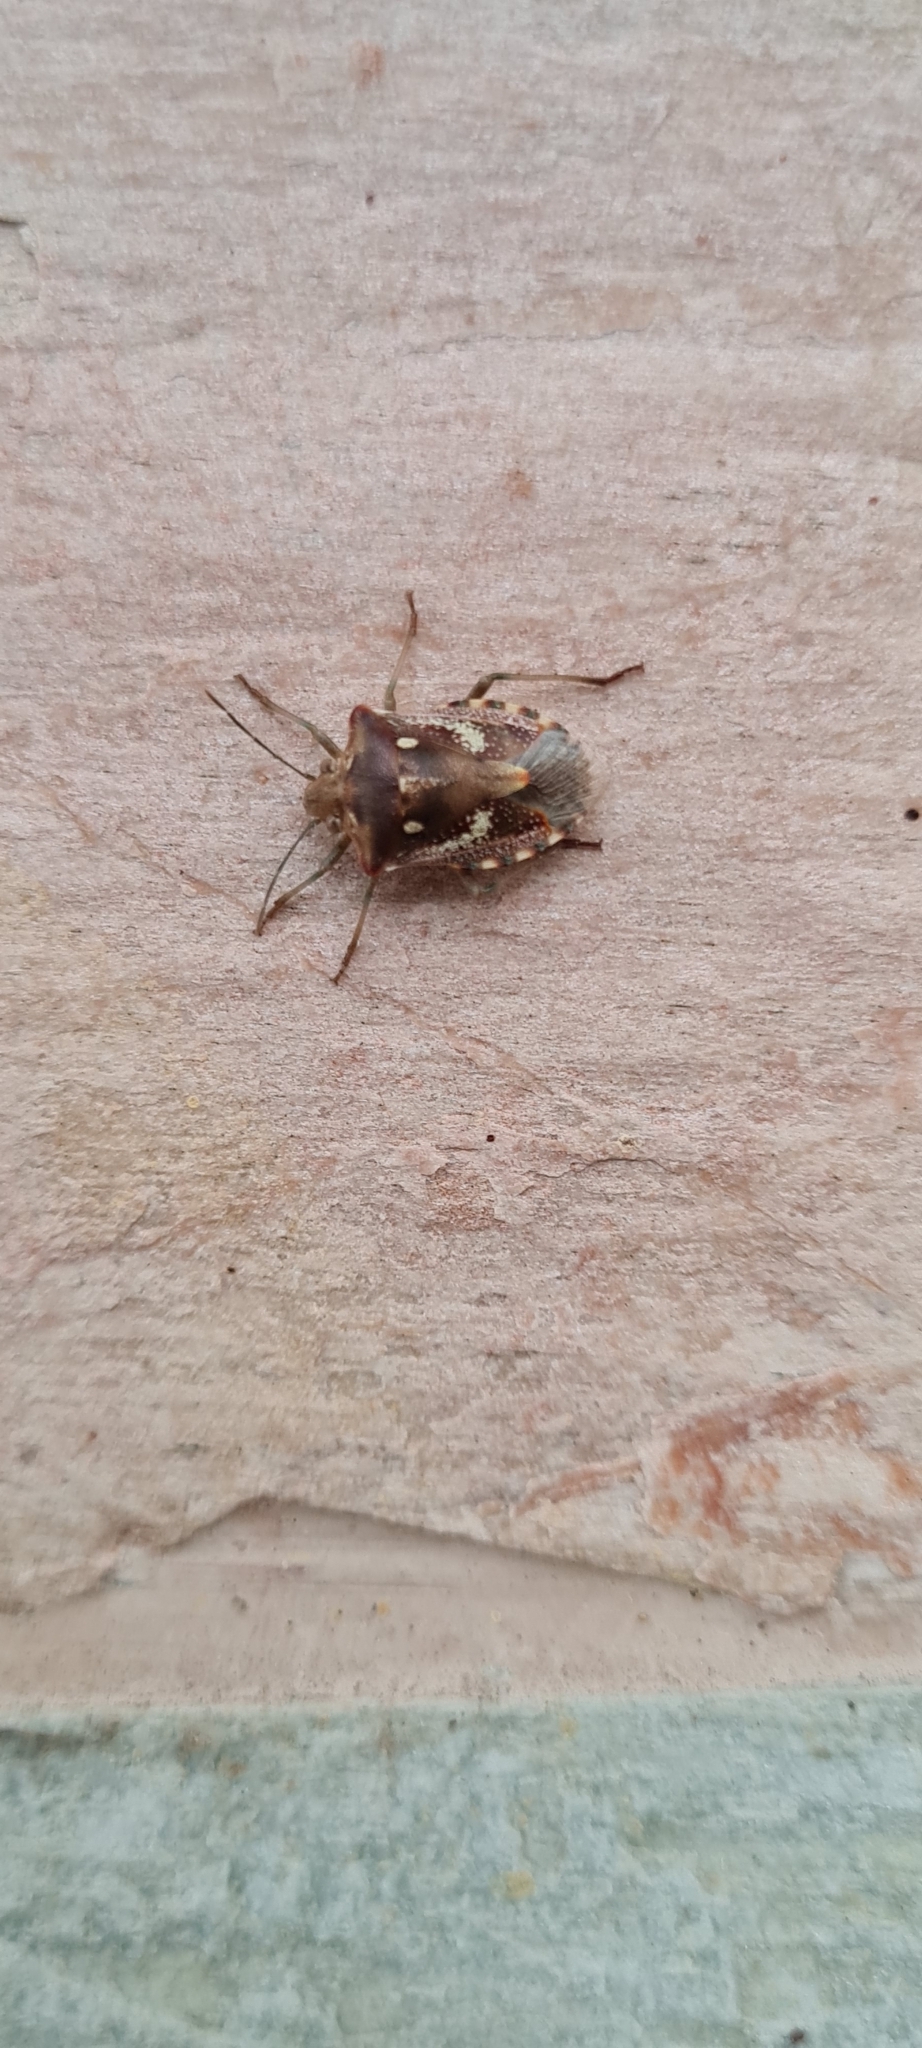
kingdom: Animalia
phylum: Arthropoda
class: Insecta
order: Hemiptera
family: Pentatomidae
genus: Croantha
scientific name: Croantha ornatula
